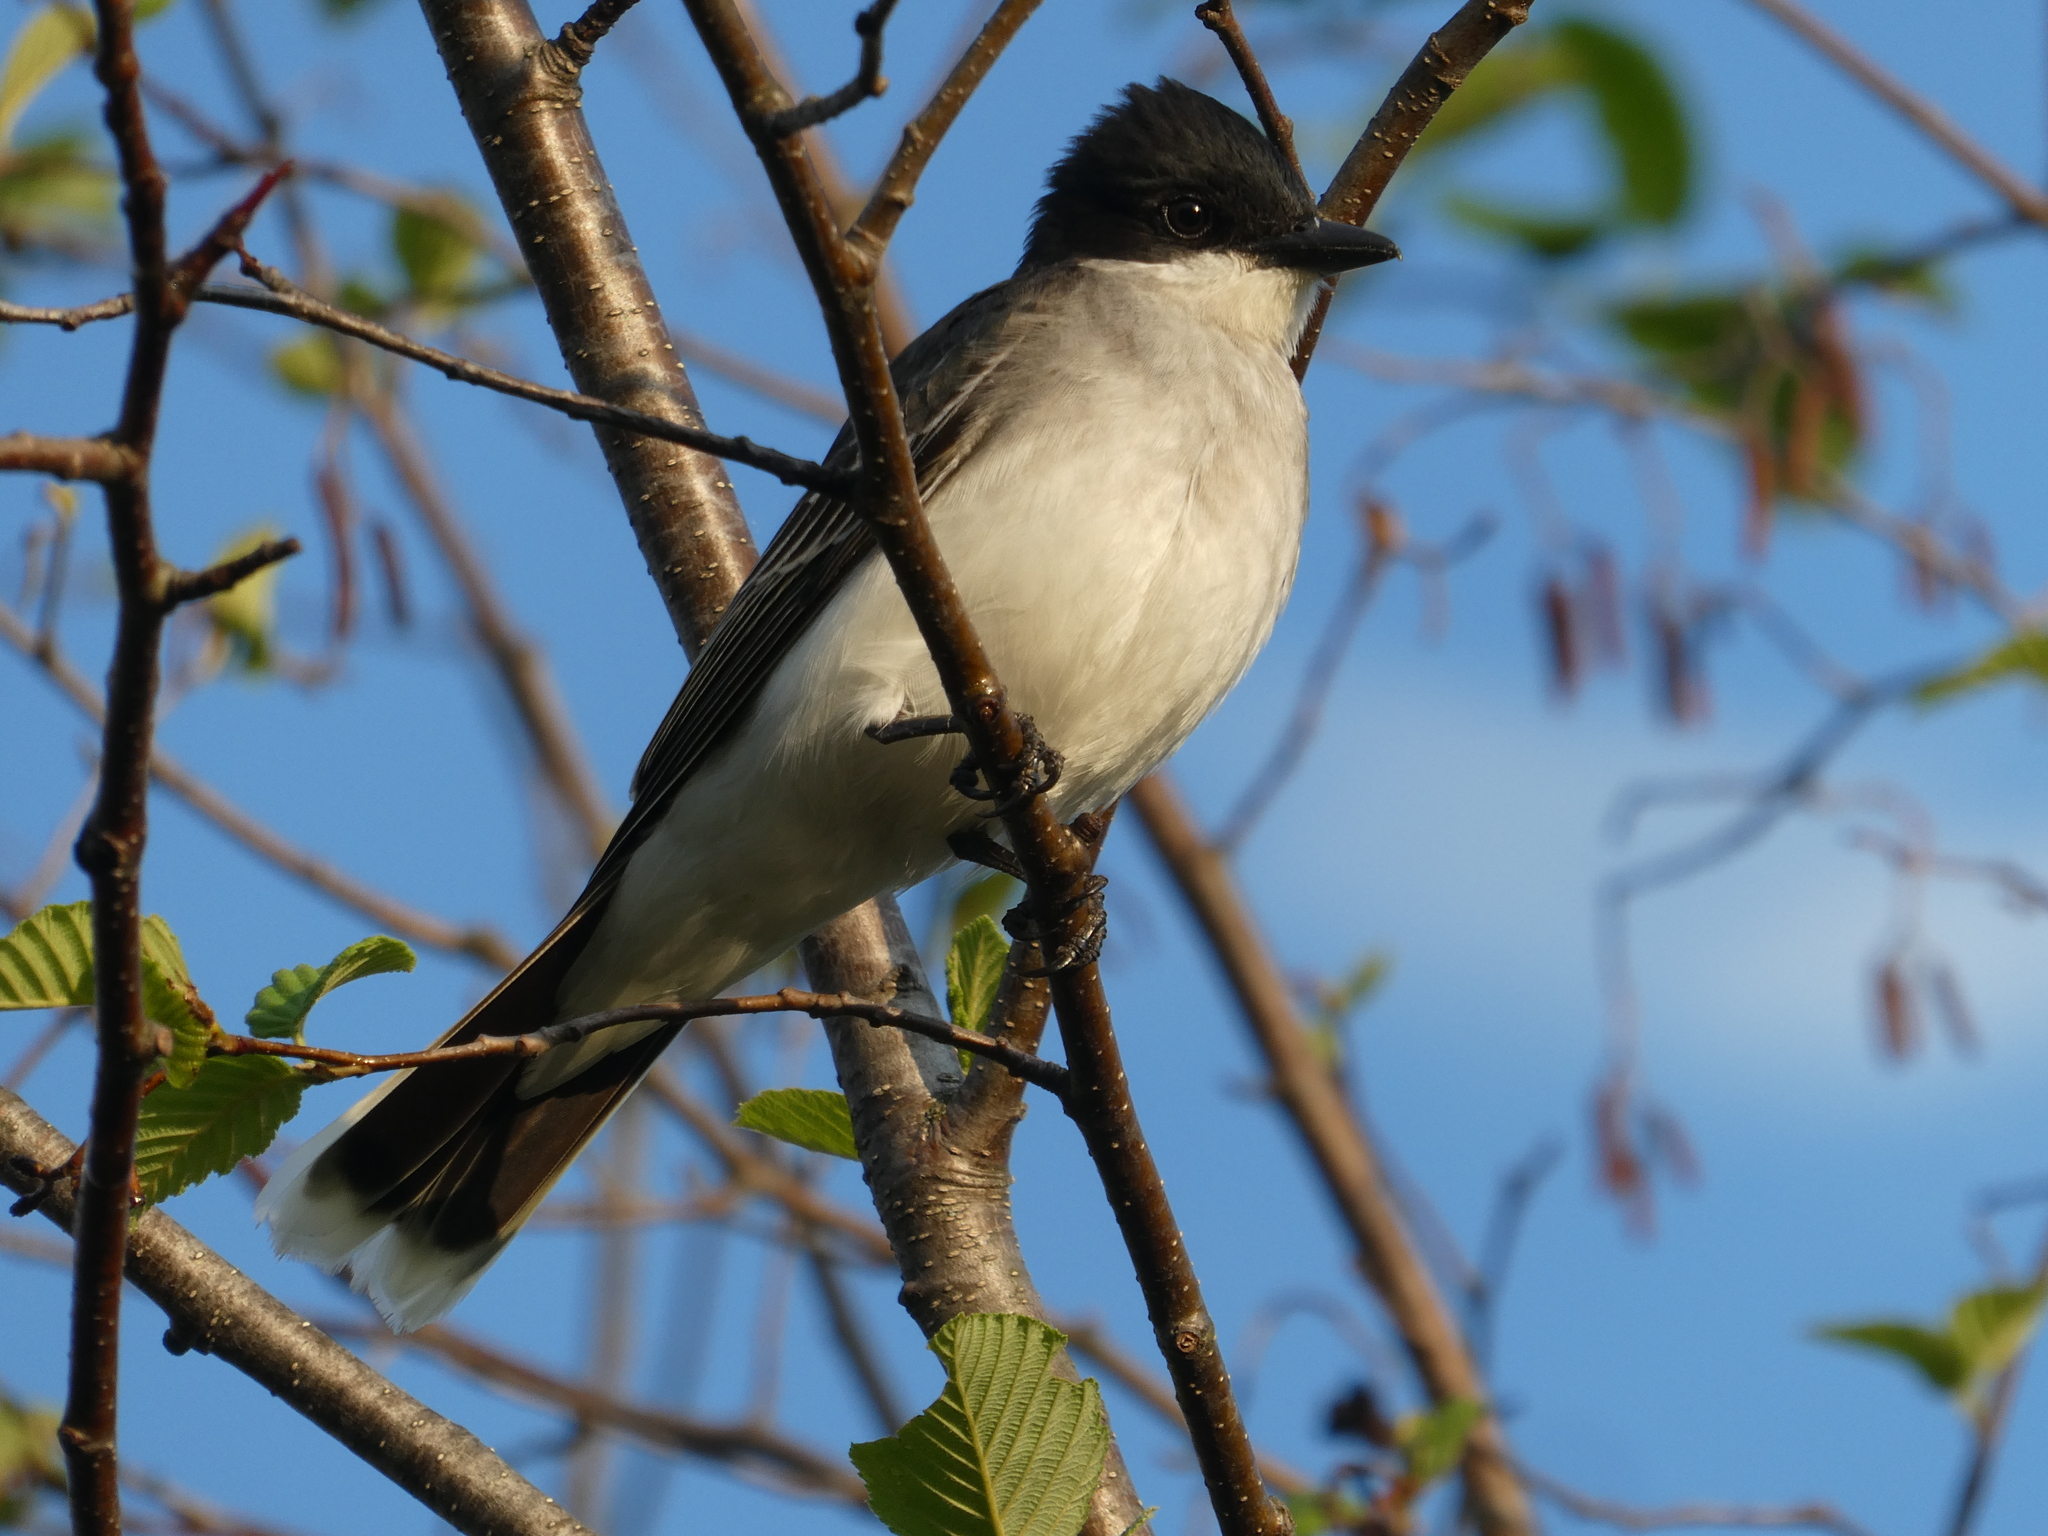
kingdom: Animalia
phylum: Chordata
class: Aves
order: Passeriformes
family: Tyrannidae
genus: Tyrannus
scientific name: Tyrannus tyrannus
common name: Eastern kingbird
